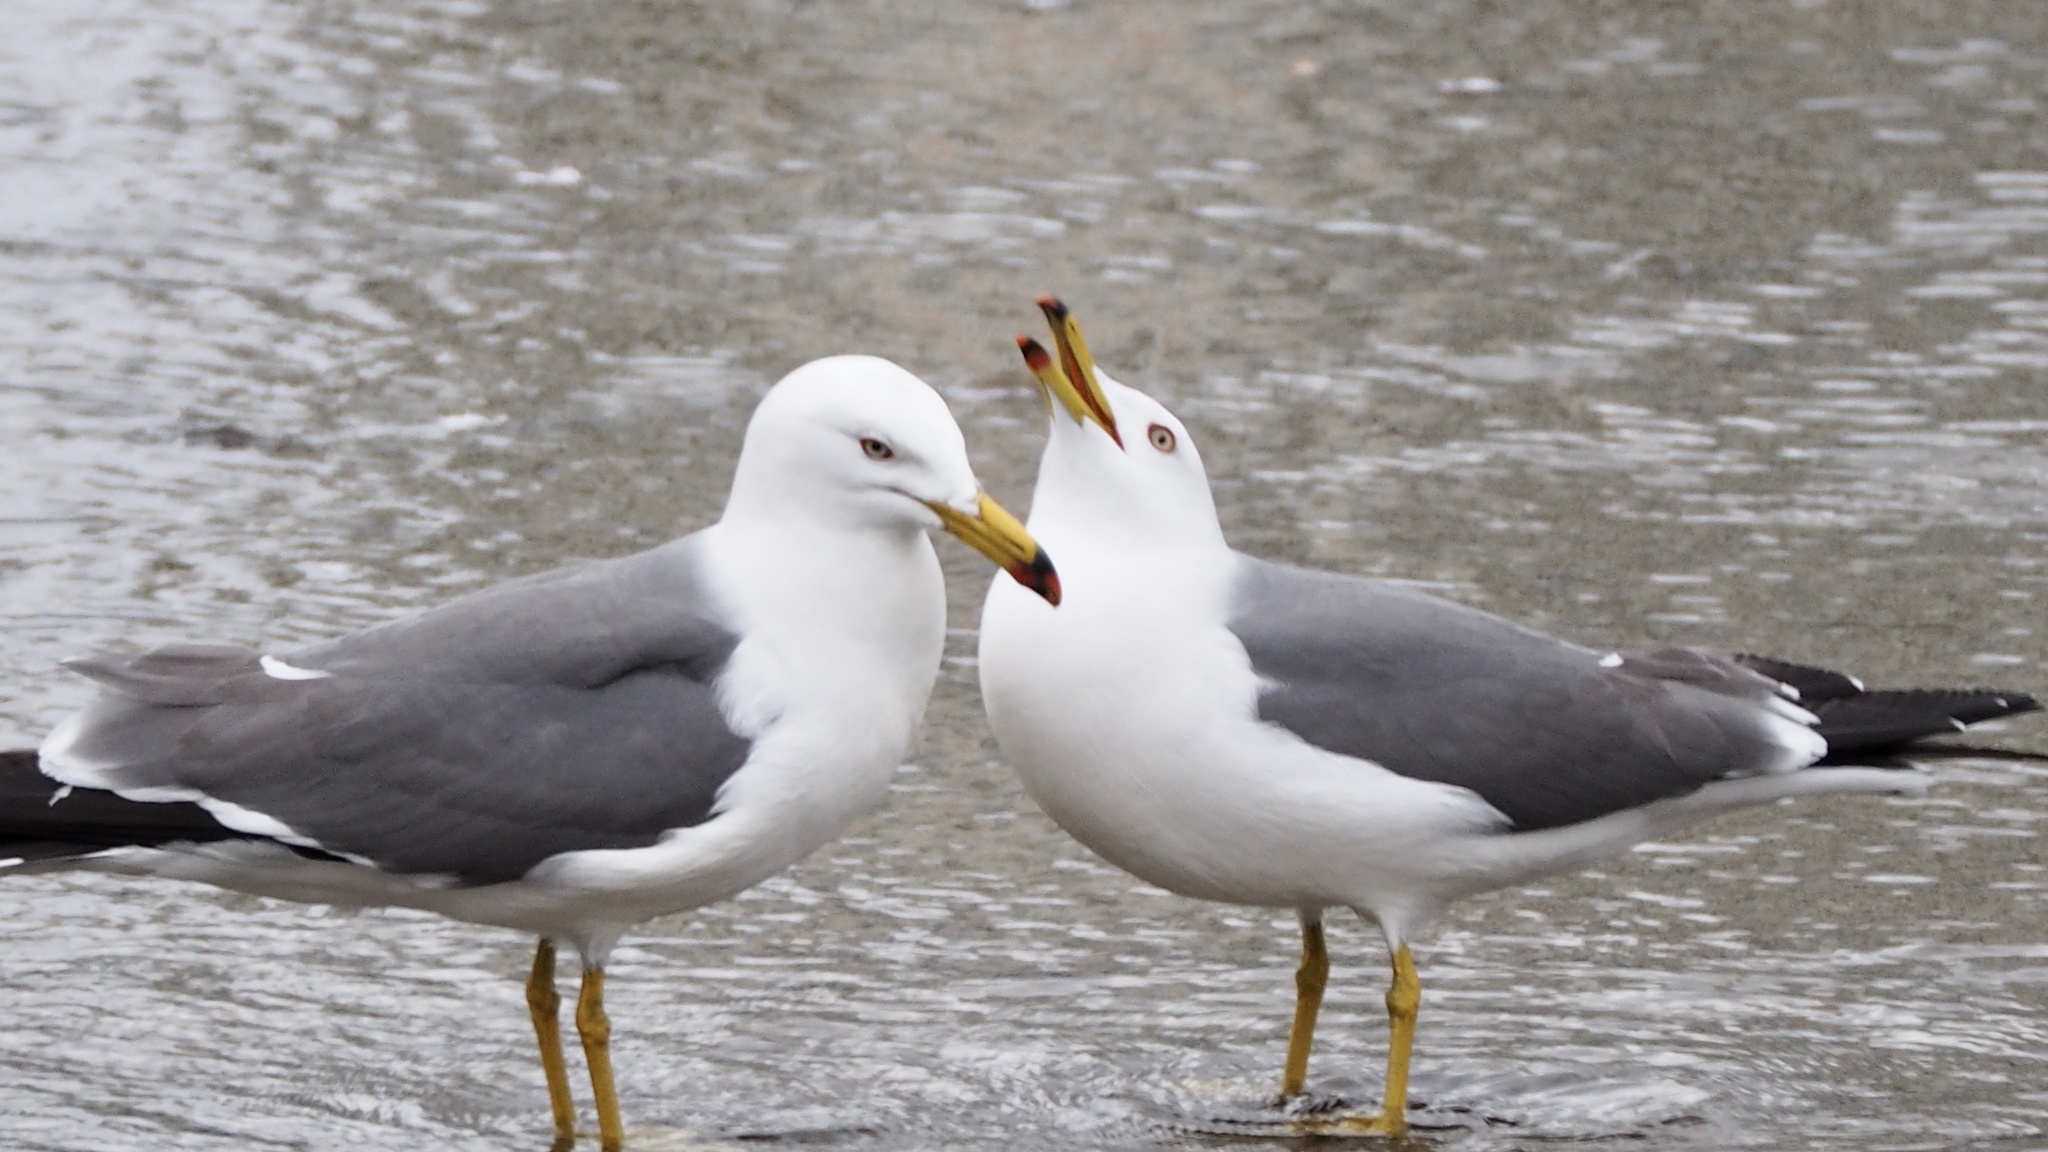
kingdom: Animalia
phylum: Chordata
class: Aves
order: Charadriiformes
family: Laridae
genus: Larus
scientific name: Larus crassirostris
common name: Black-tailed gull
